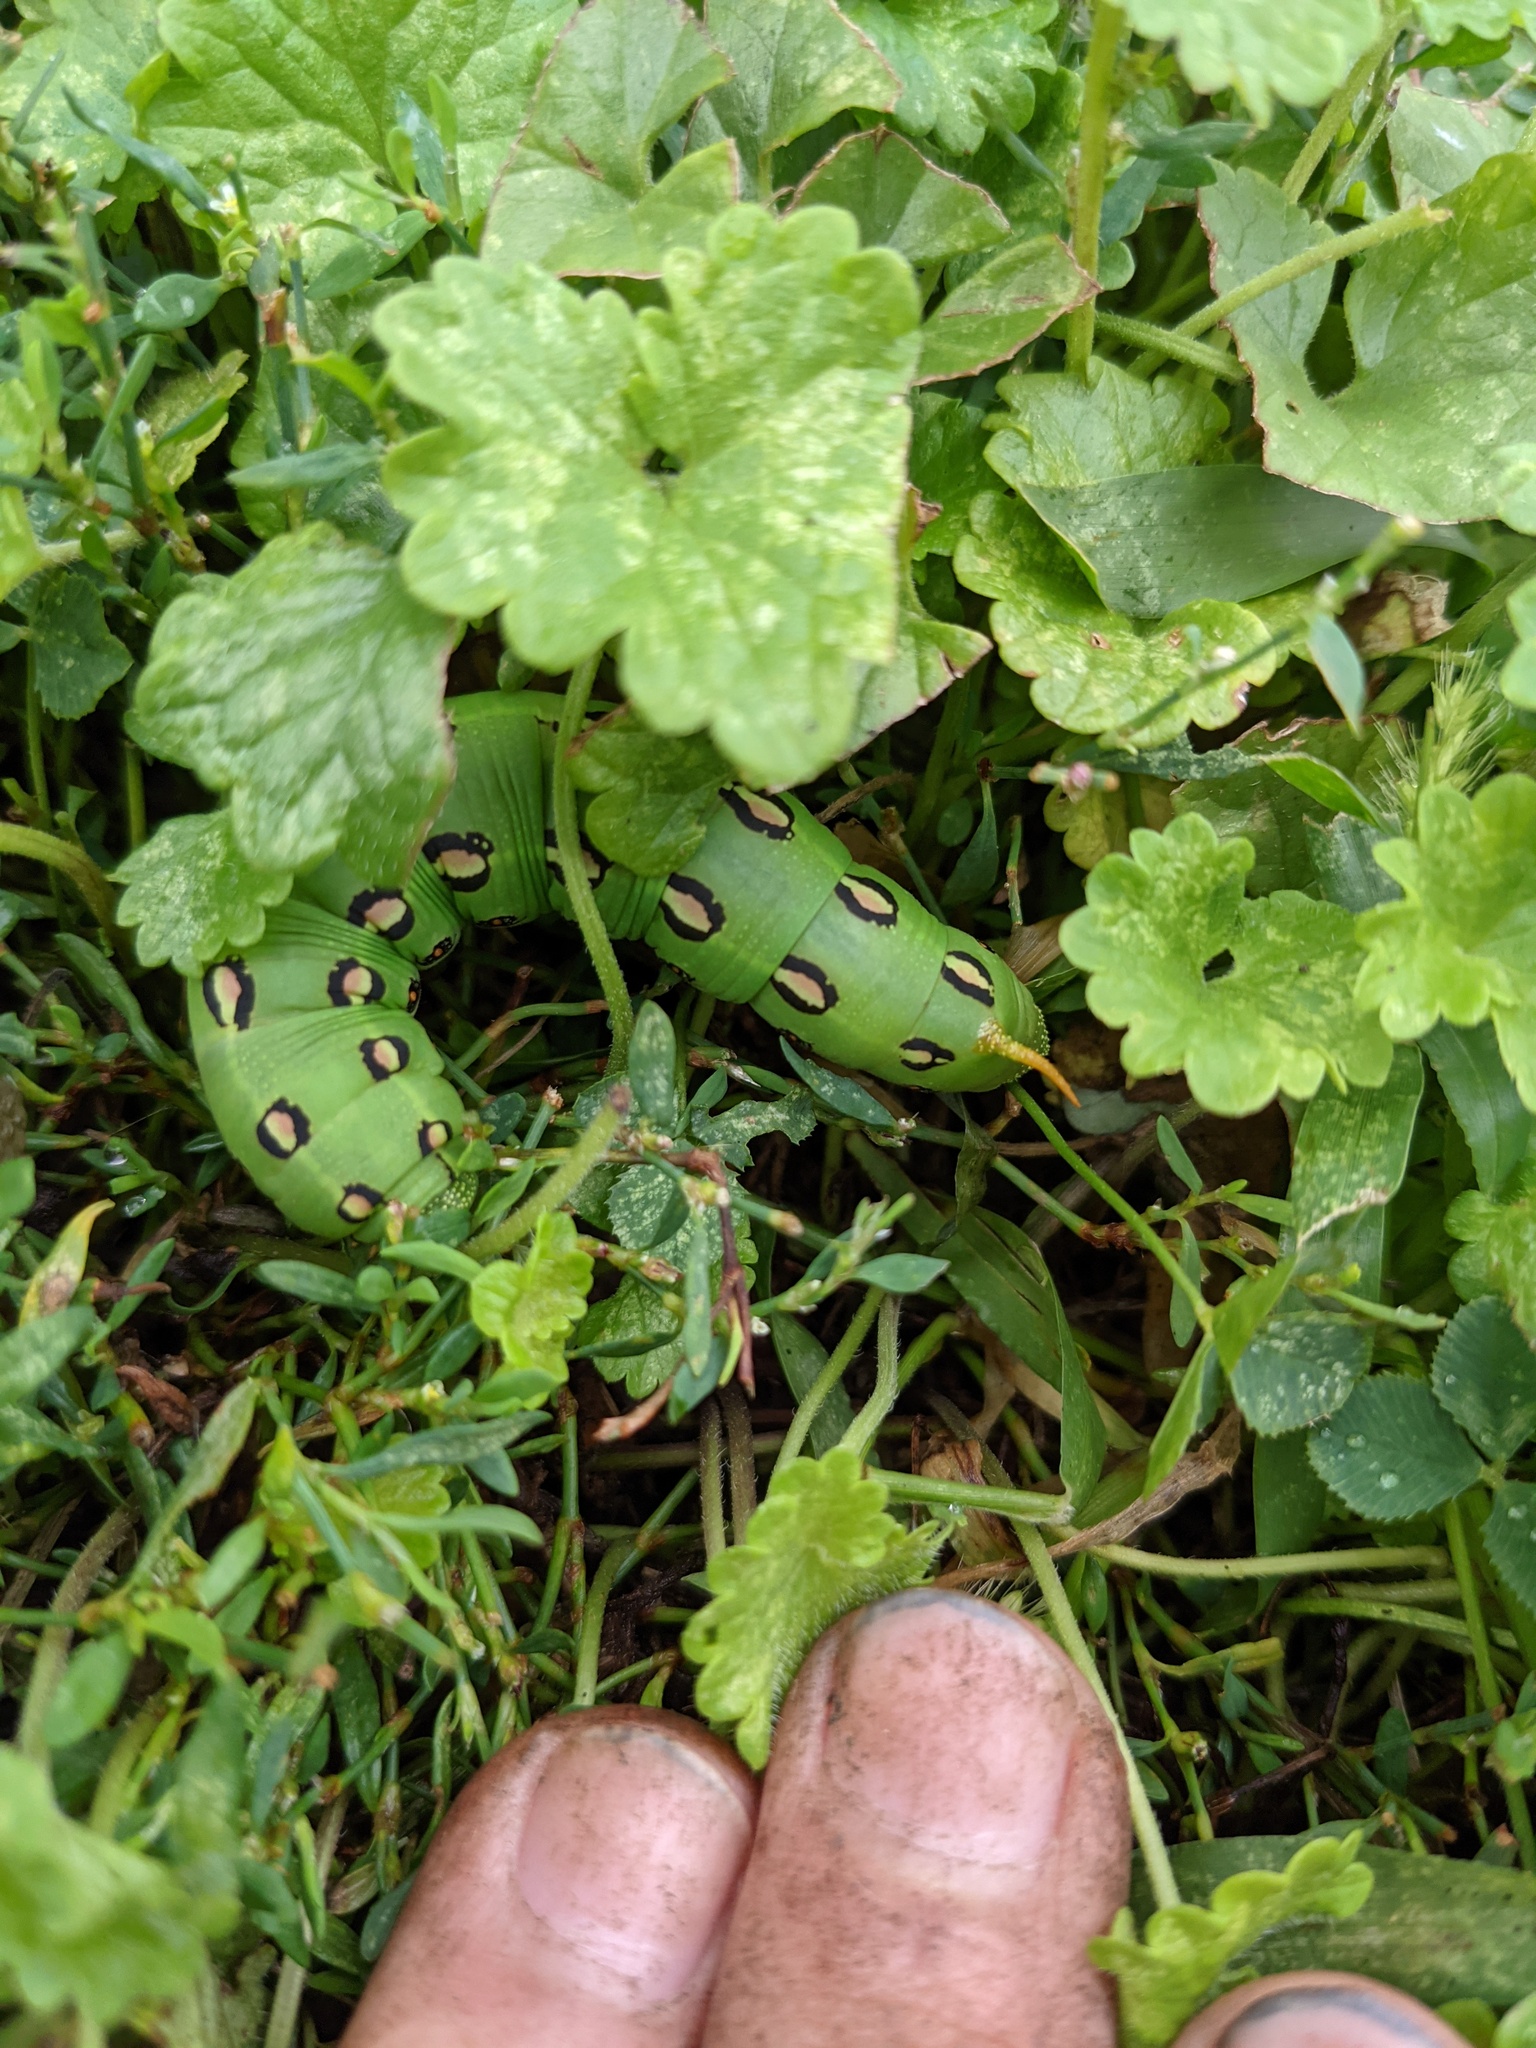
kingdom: Animalia
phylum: Arthropoda
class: Insecta
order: Lepidoptera
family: Sphingidae
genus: Hyles
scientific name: Hyles lineata
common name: White-lined sphinx
